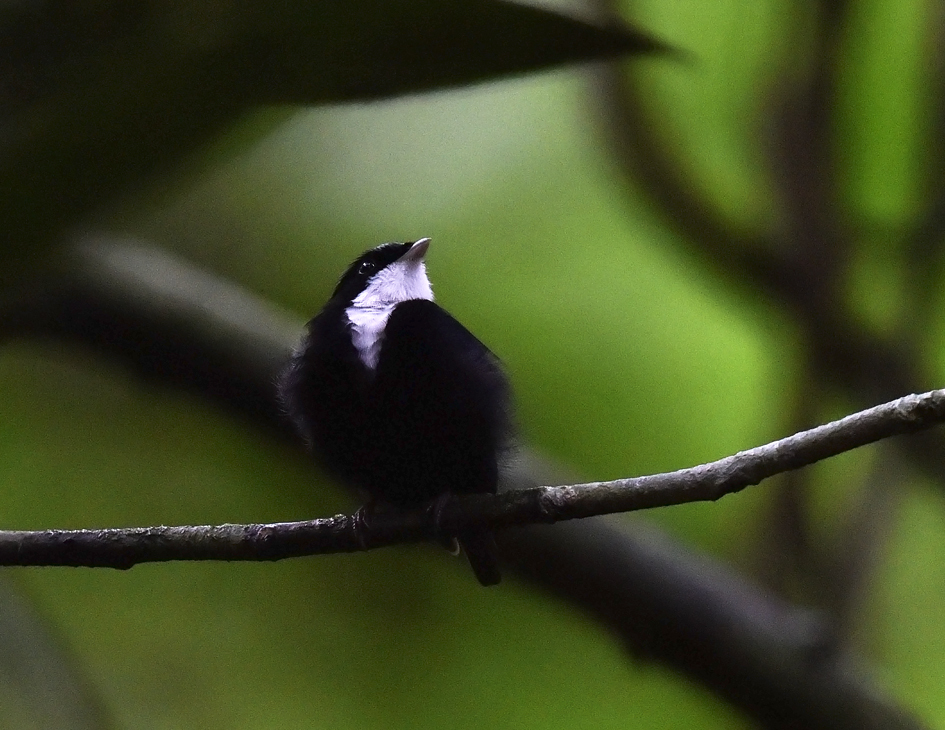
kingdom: Animalia
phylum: Chordata
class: Aves
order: Passeriformes
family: Pipridae
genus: Corapipo
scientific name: Corapipo gutturalis
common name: White-throated manakin
